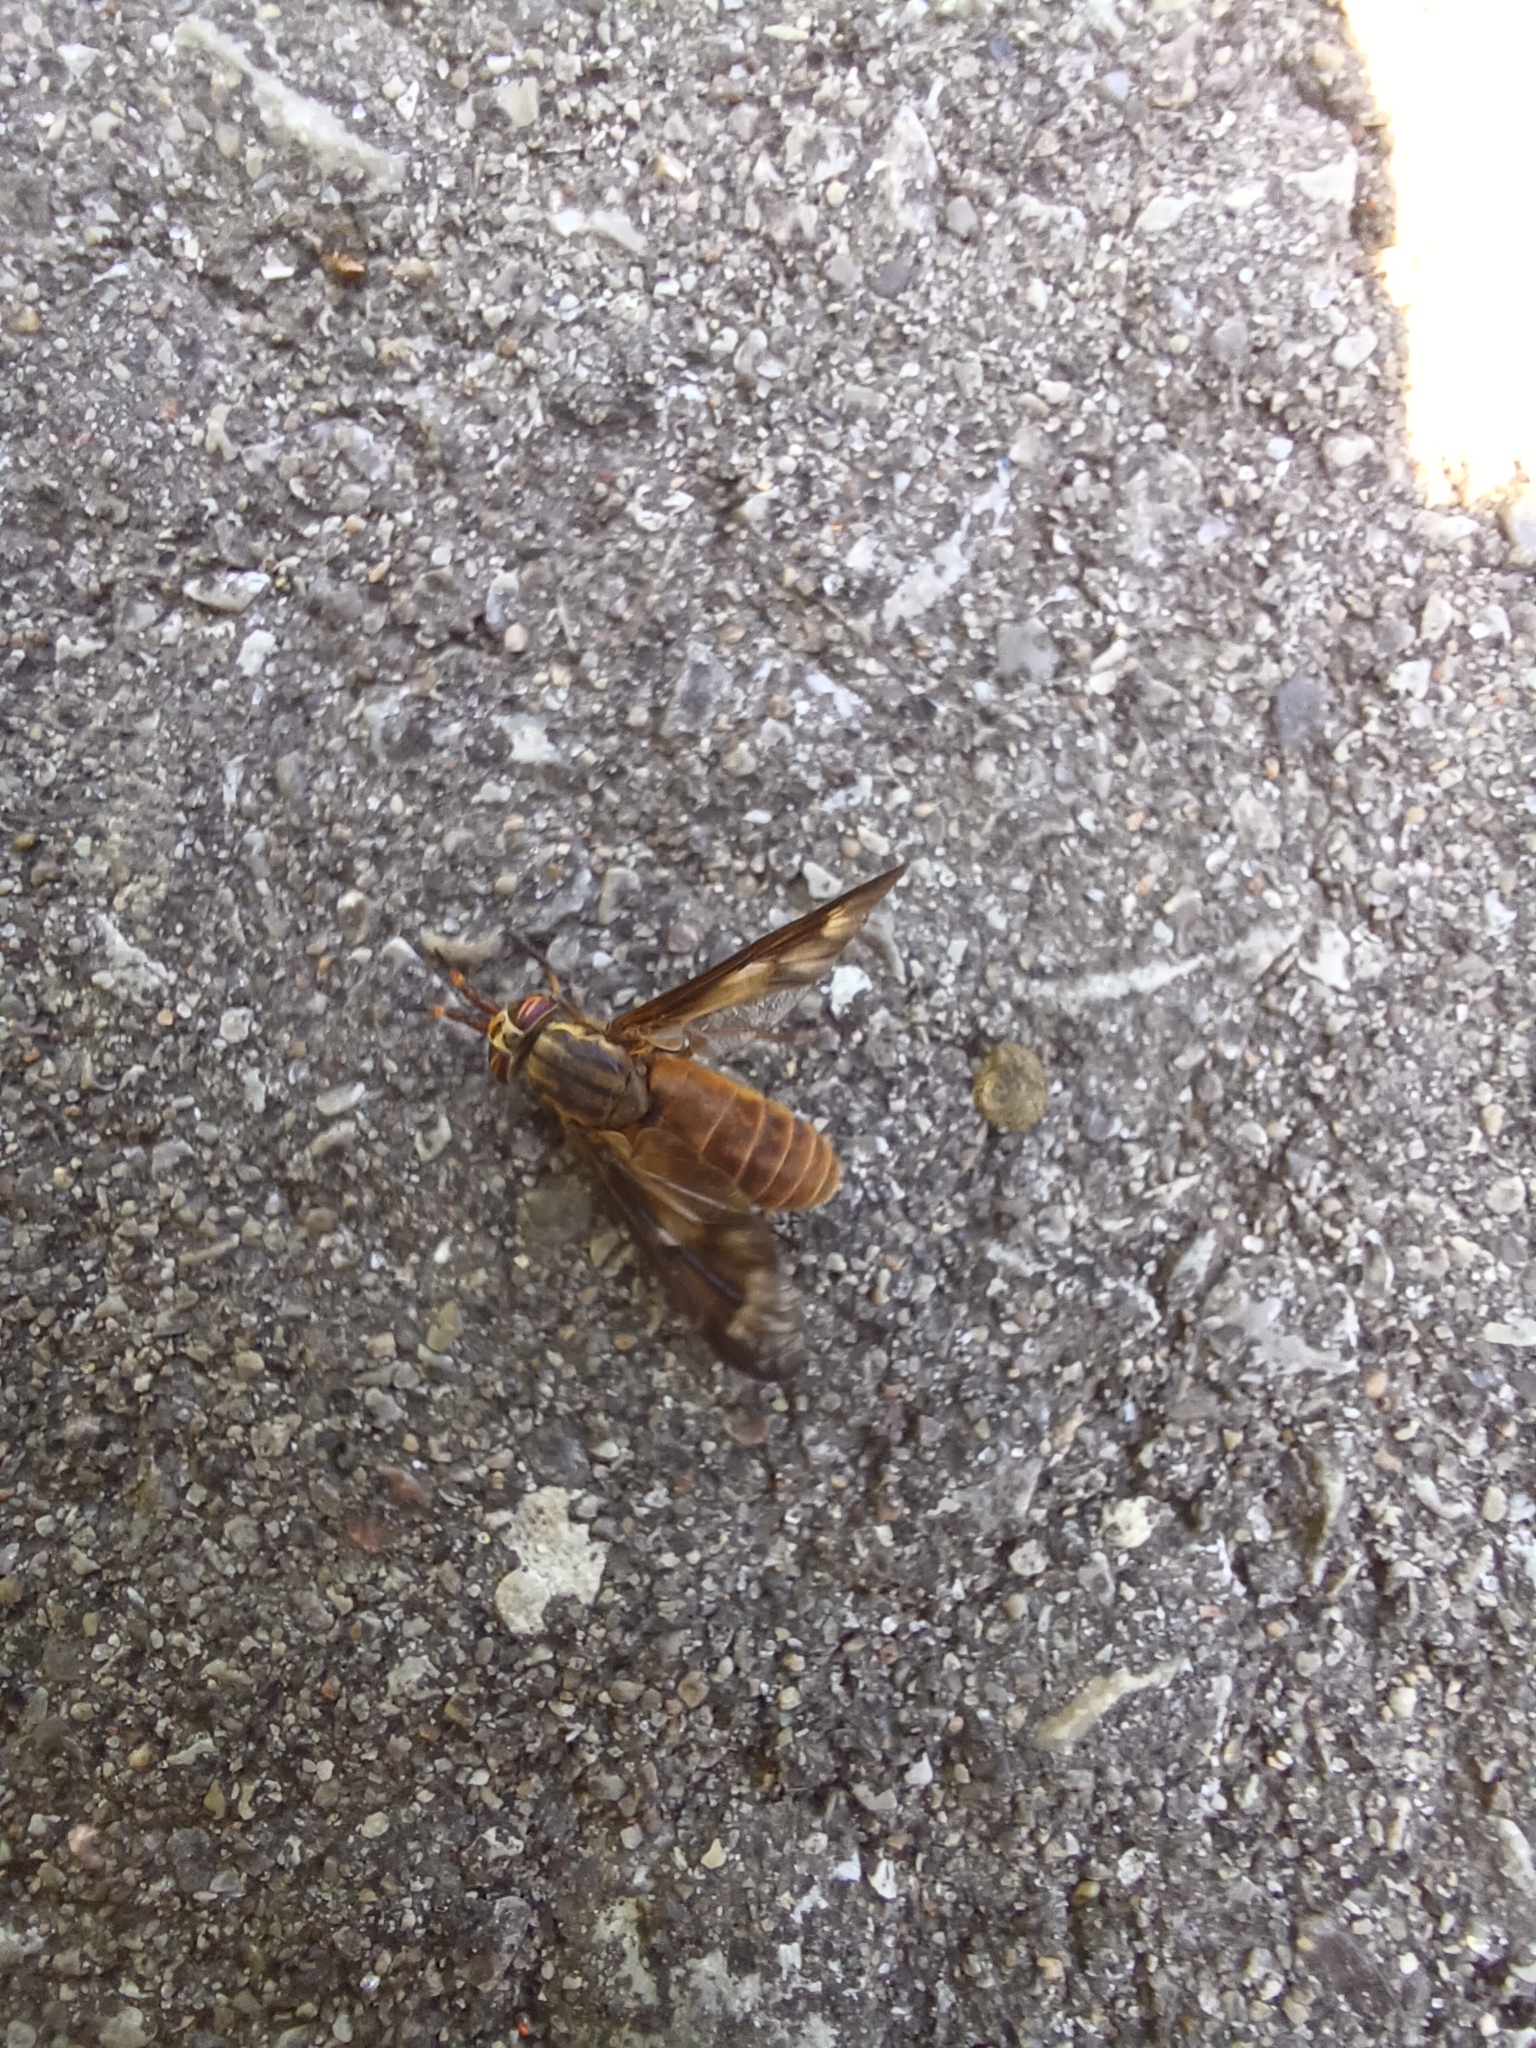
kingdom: Animalia
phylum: Arthropoda
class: Insecta
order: Diptera
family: Tabanidae
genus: Chrysops
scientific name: Chrysops brunneus
